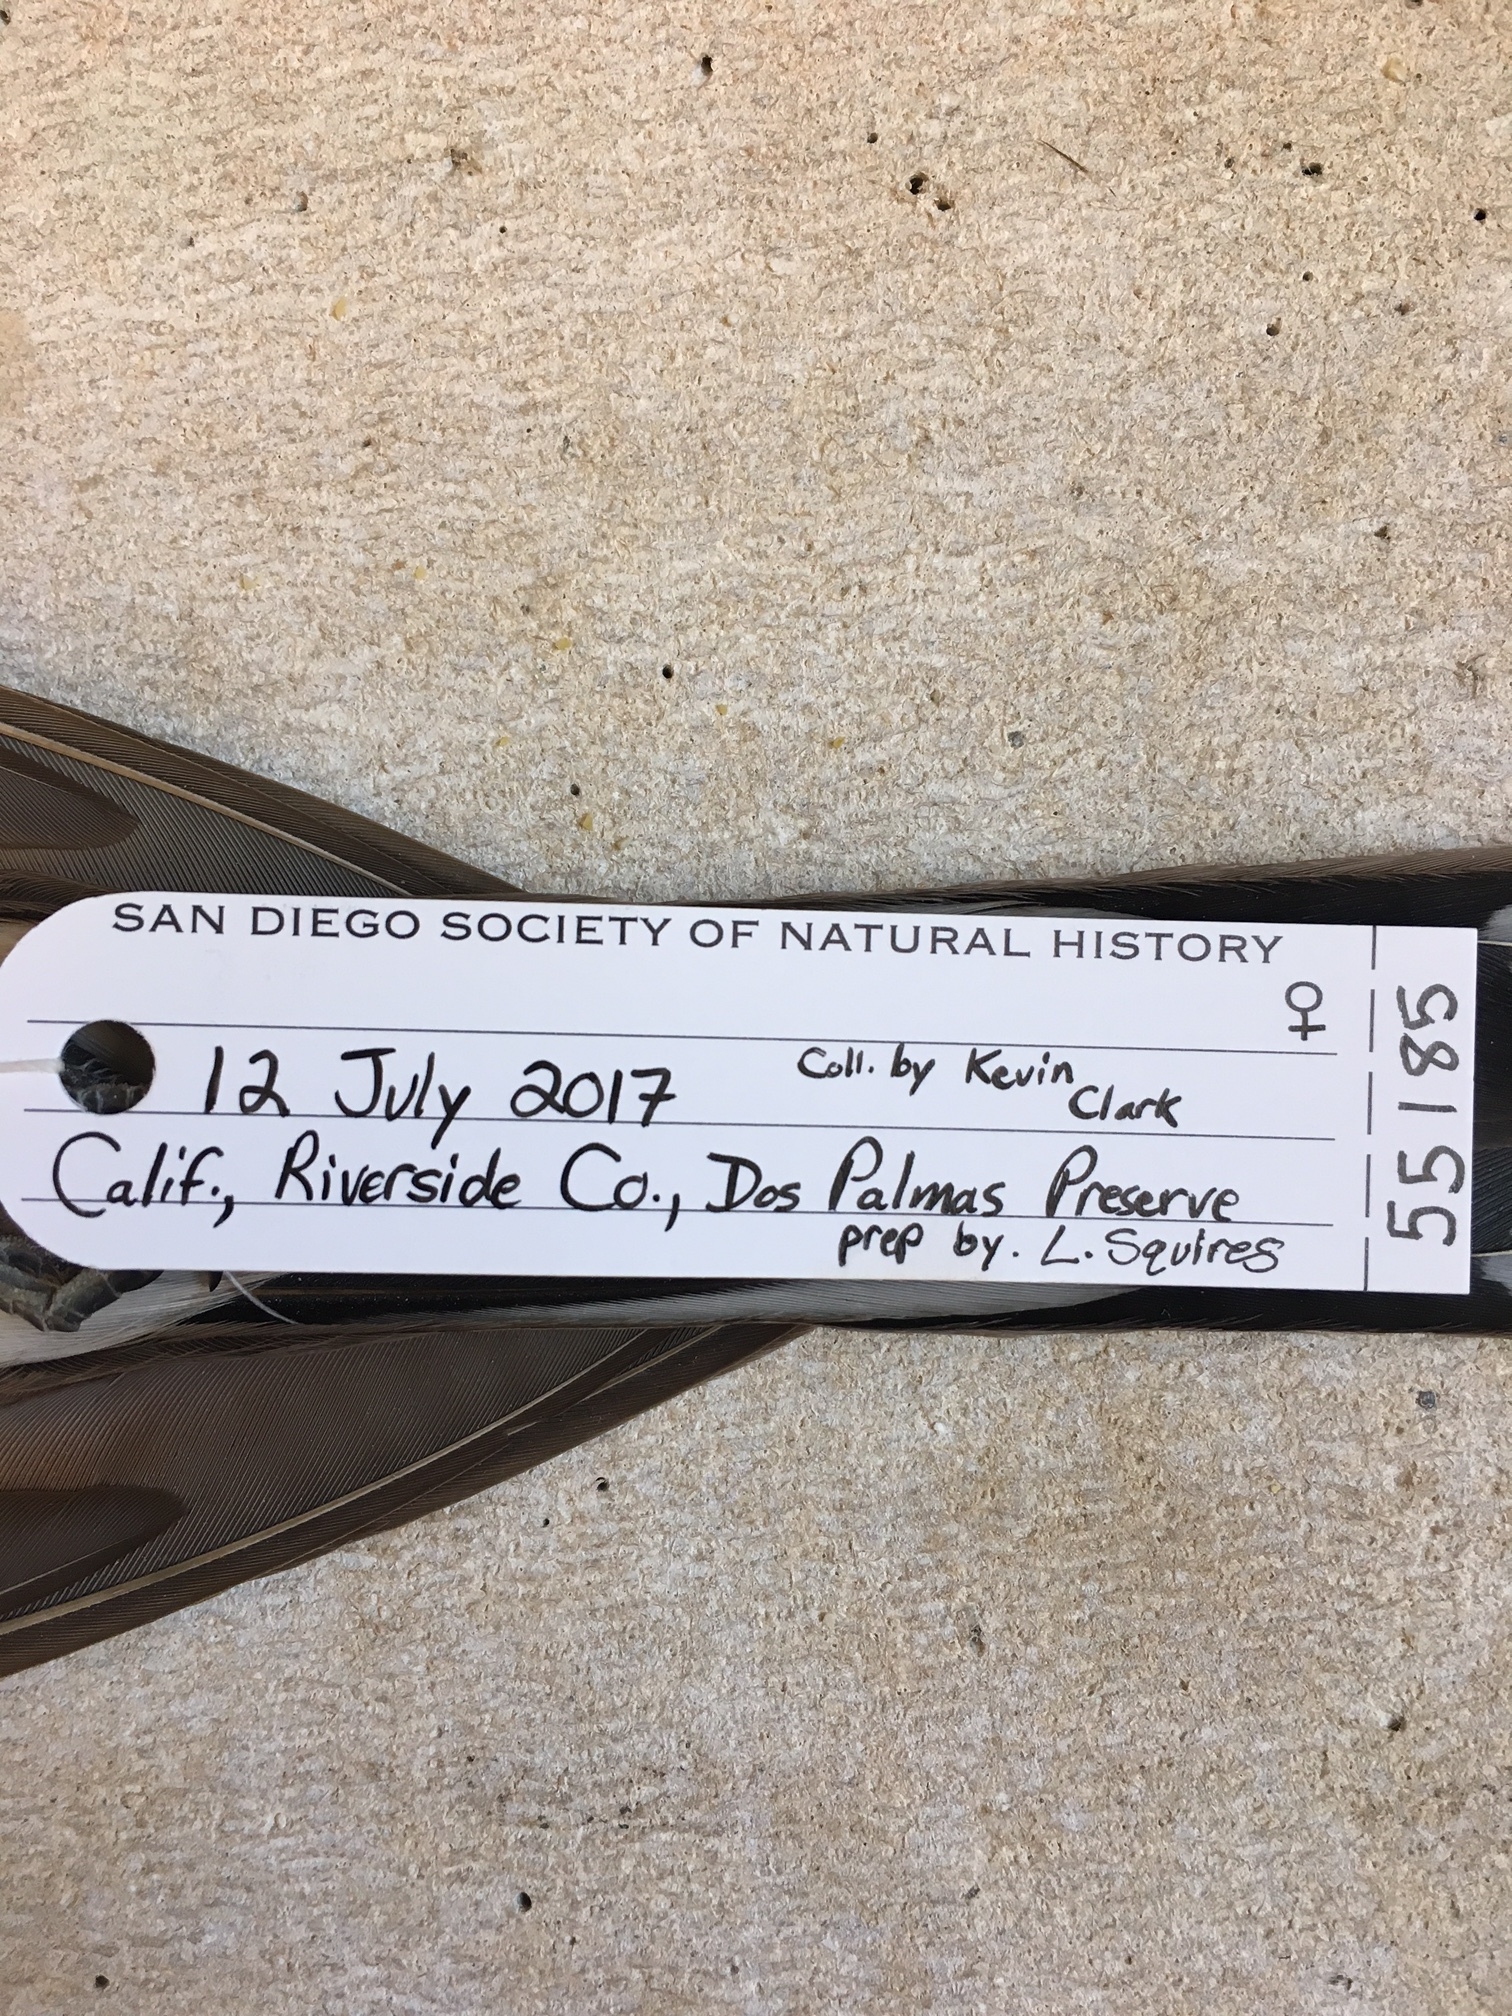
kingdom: Animalia
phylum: Chordata
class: Aves
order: Cuculiformes
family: Cuculidae
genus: Coccyzus
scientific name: Coccyzus americanus
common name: Yellow-billed cuckoo
